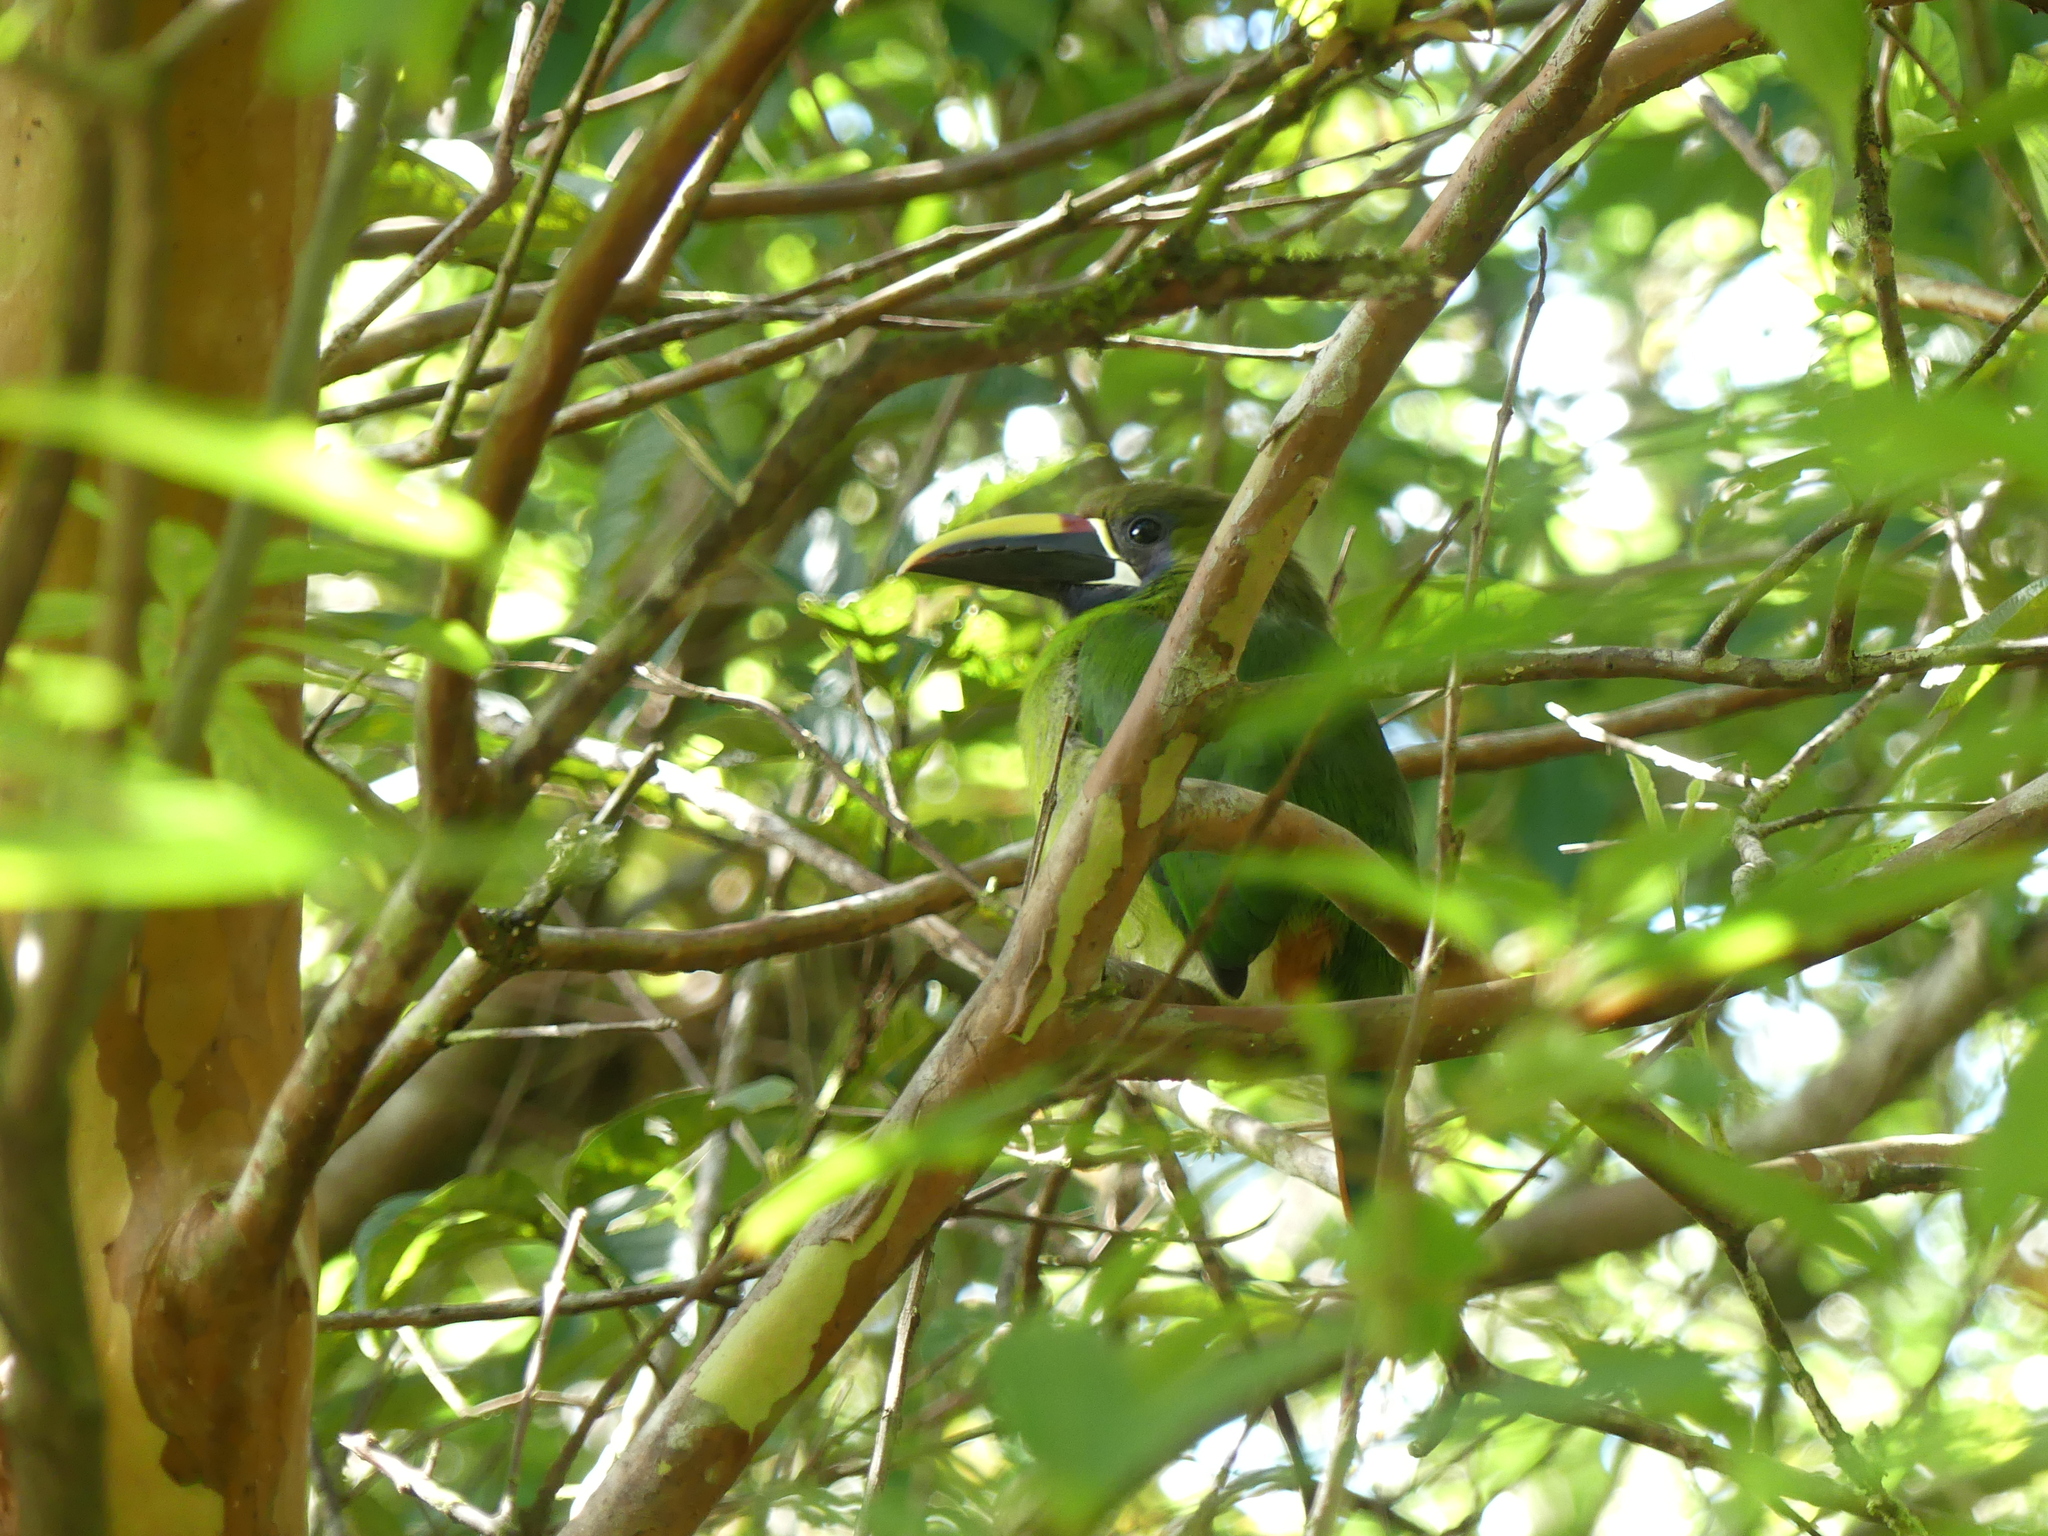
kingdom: Animalia
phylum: Chordata
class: Aves
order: Piciformes
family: Ramphastidae
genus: Aulacorhynchus
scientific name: Aulacorhynchus prasinus
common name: Emerald toucanet
